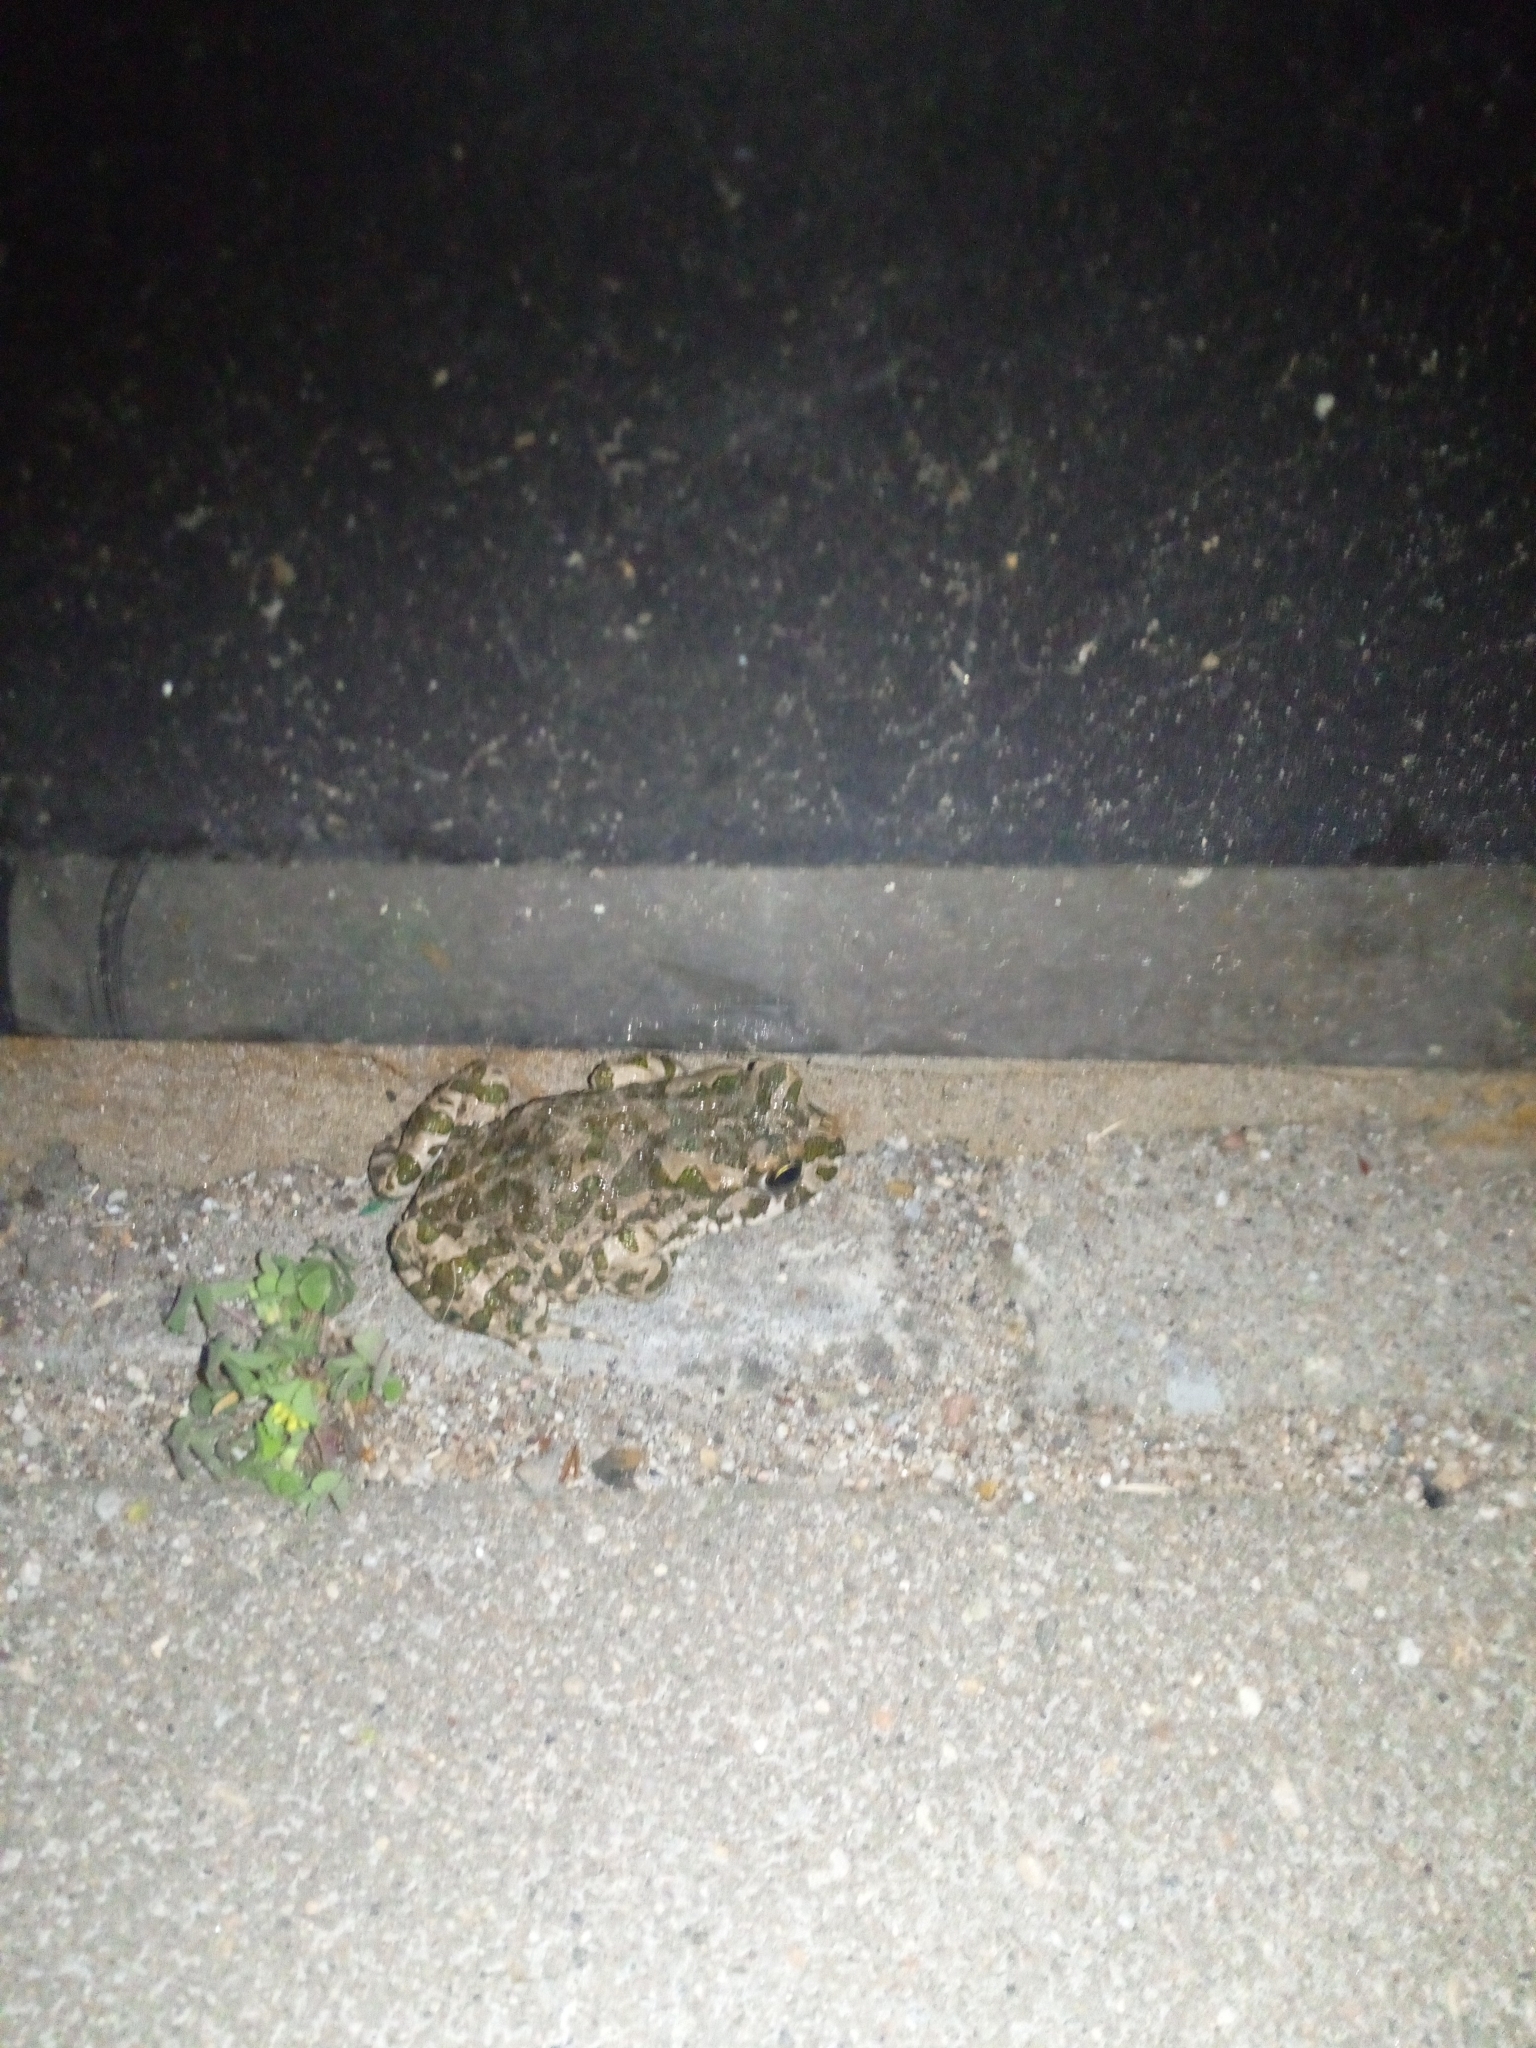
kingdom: Animalia
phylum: Chordata
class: Amphibia
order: Anura
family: Bufonidae
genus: Bufotes
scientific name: Bufotes viridis
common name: European green toad
